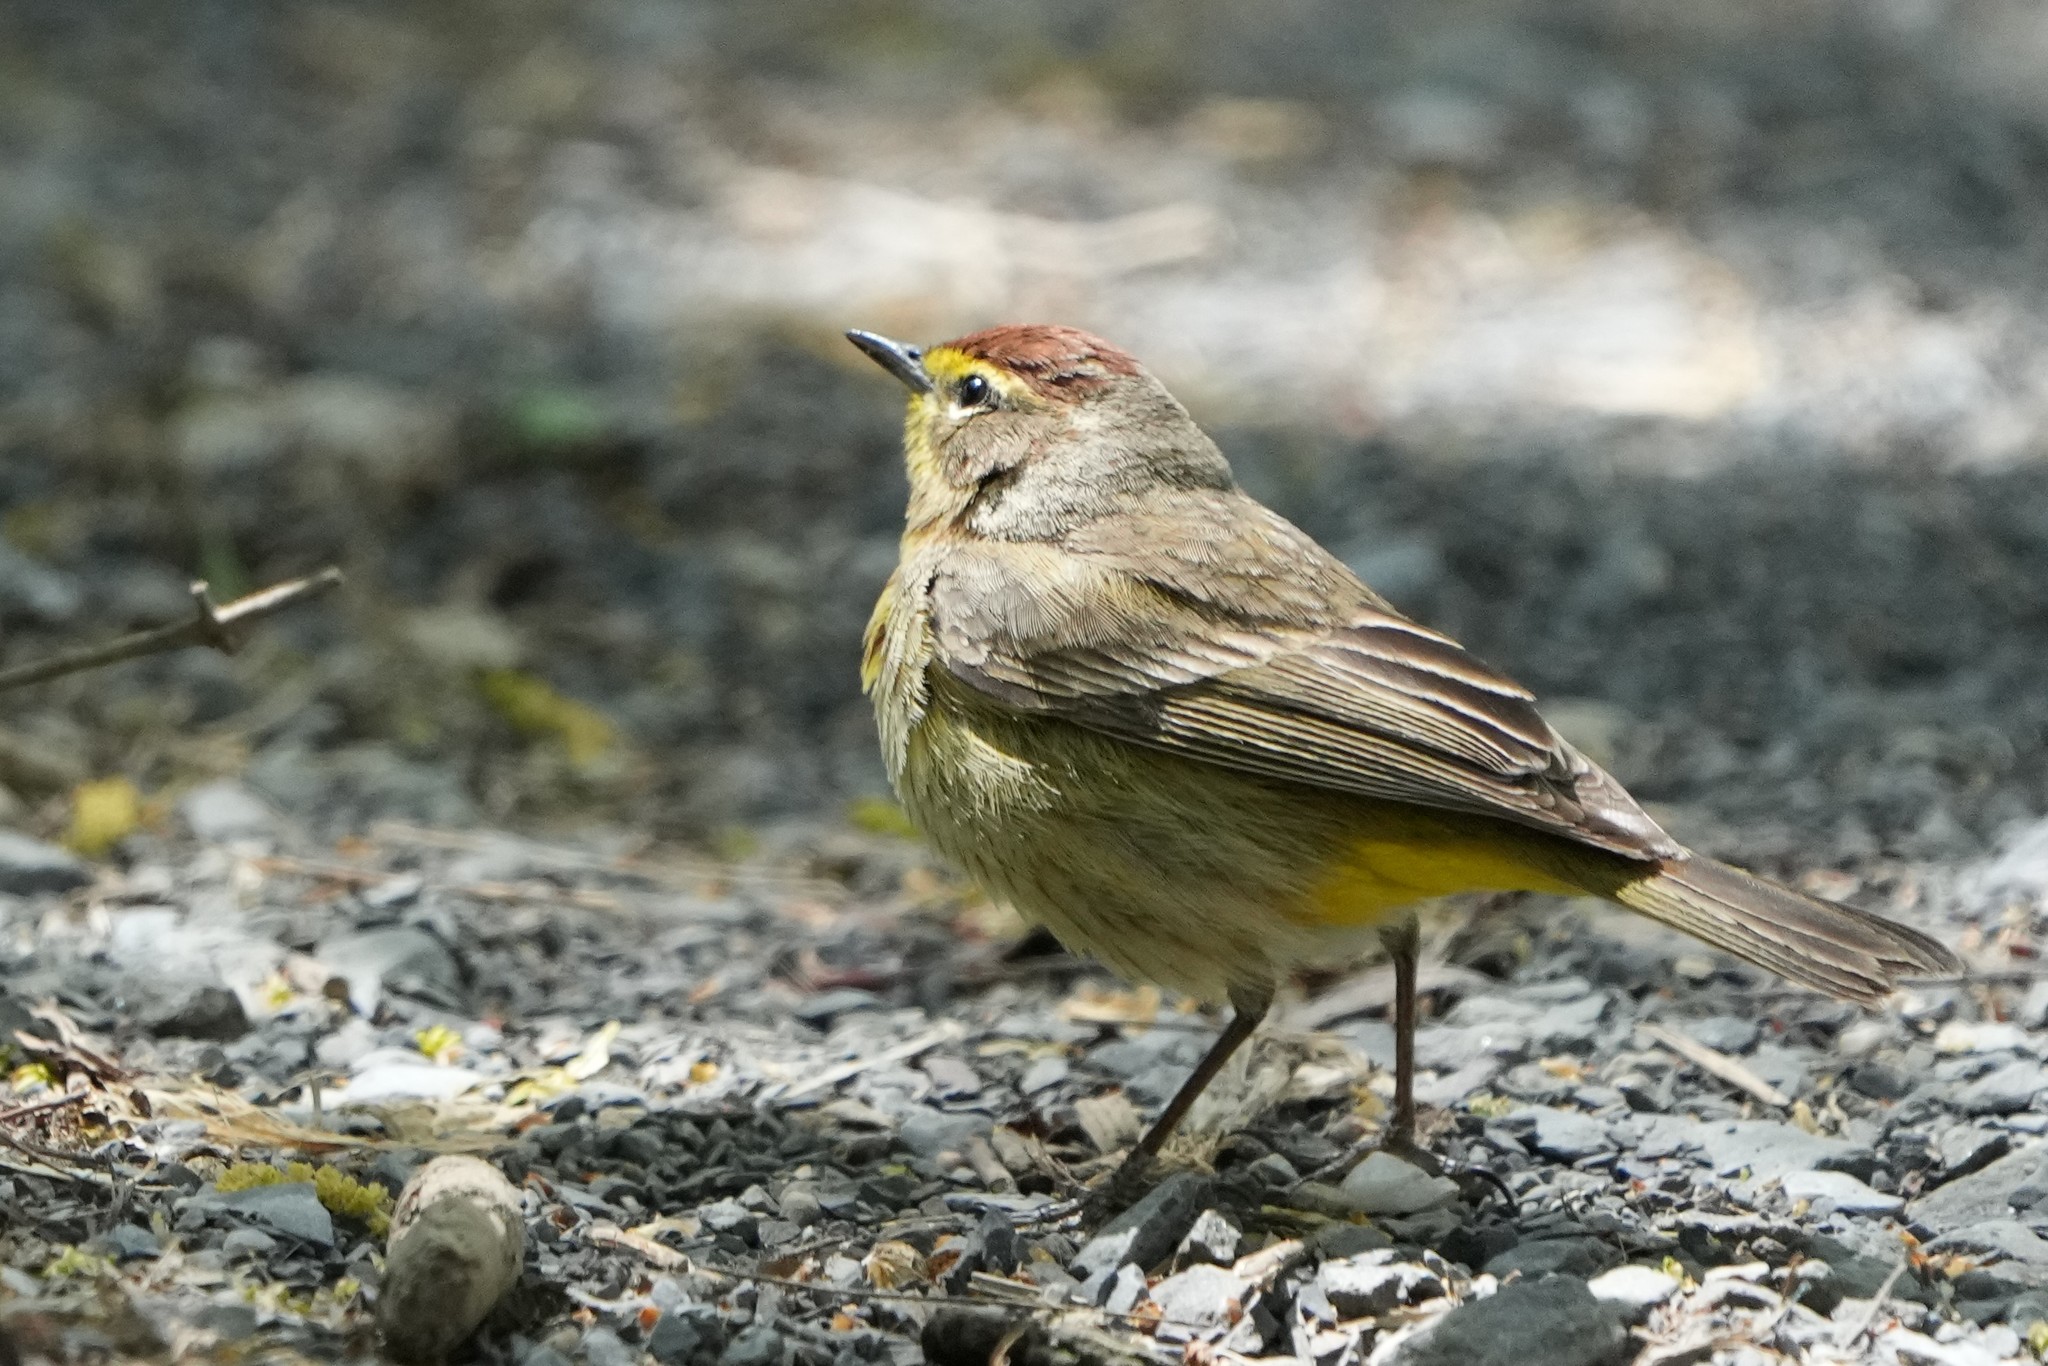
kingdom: Animalia
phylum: Chordata
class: Aves
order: Passeriformes
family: Parulidae
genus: Setophaga
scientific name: Setophaga palmarum
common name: Palm warbler
